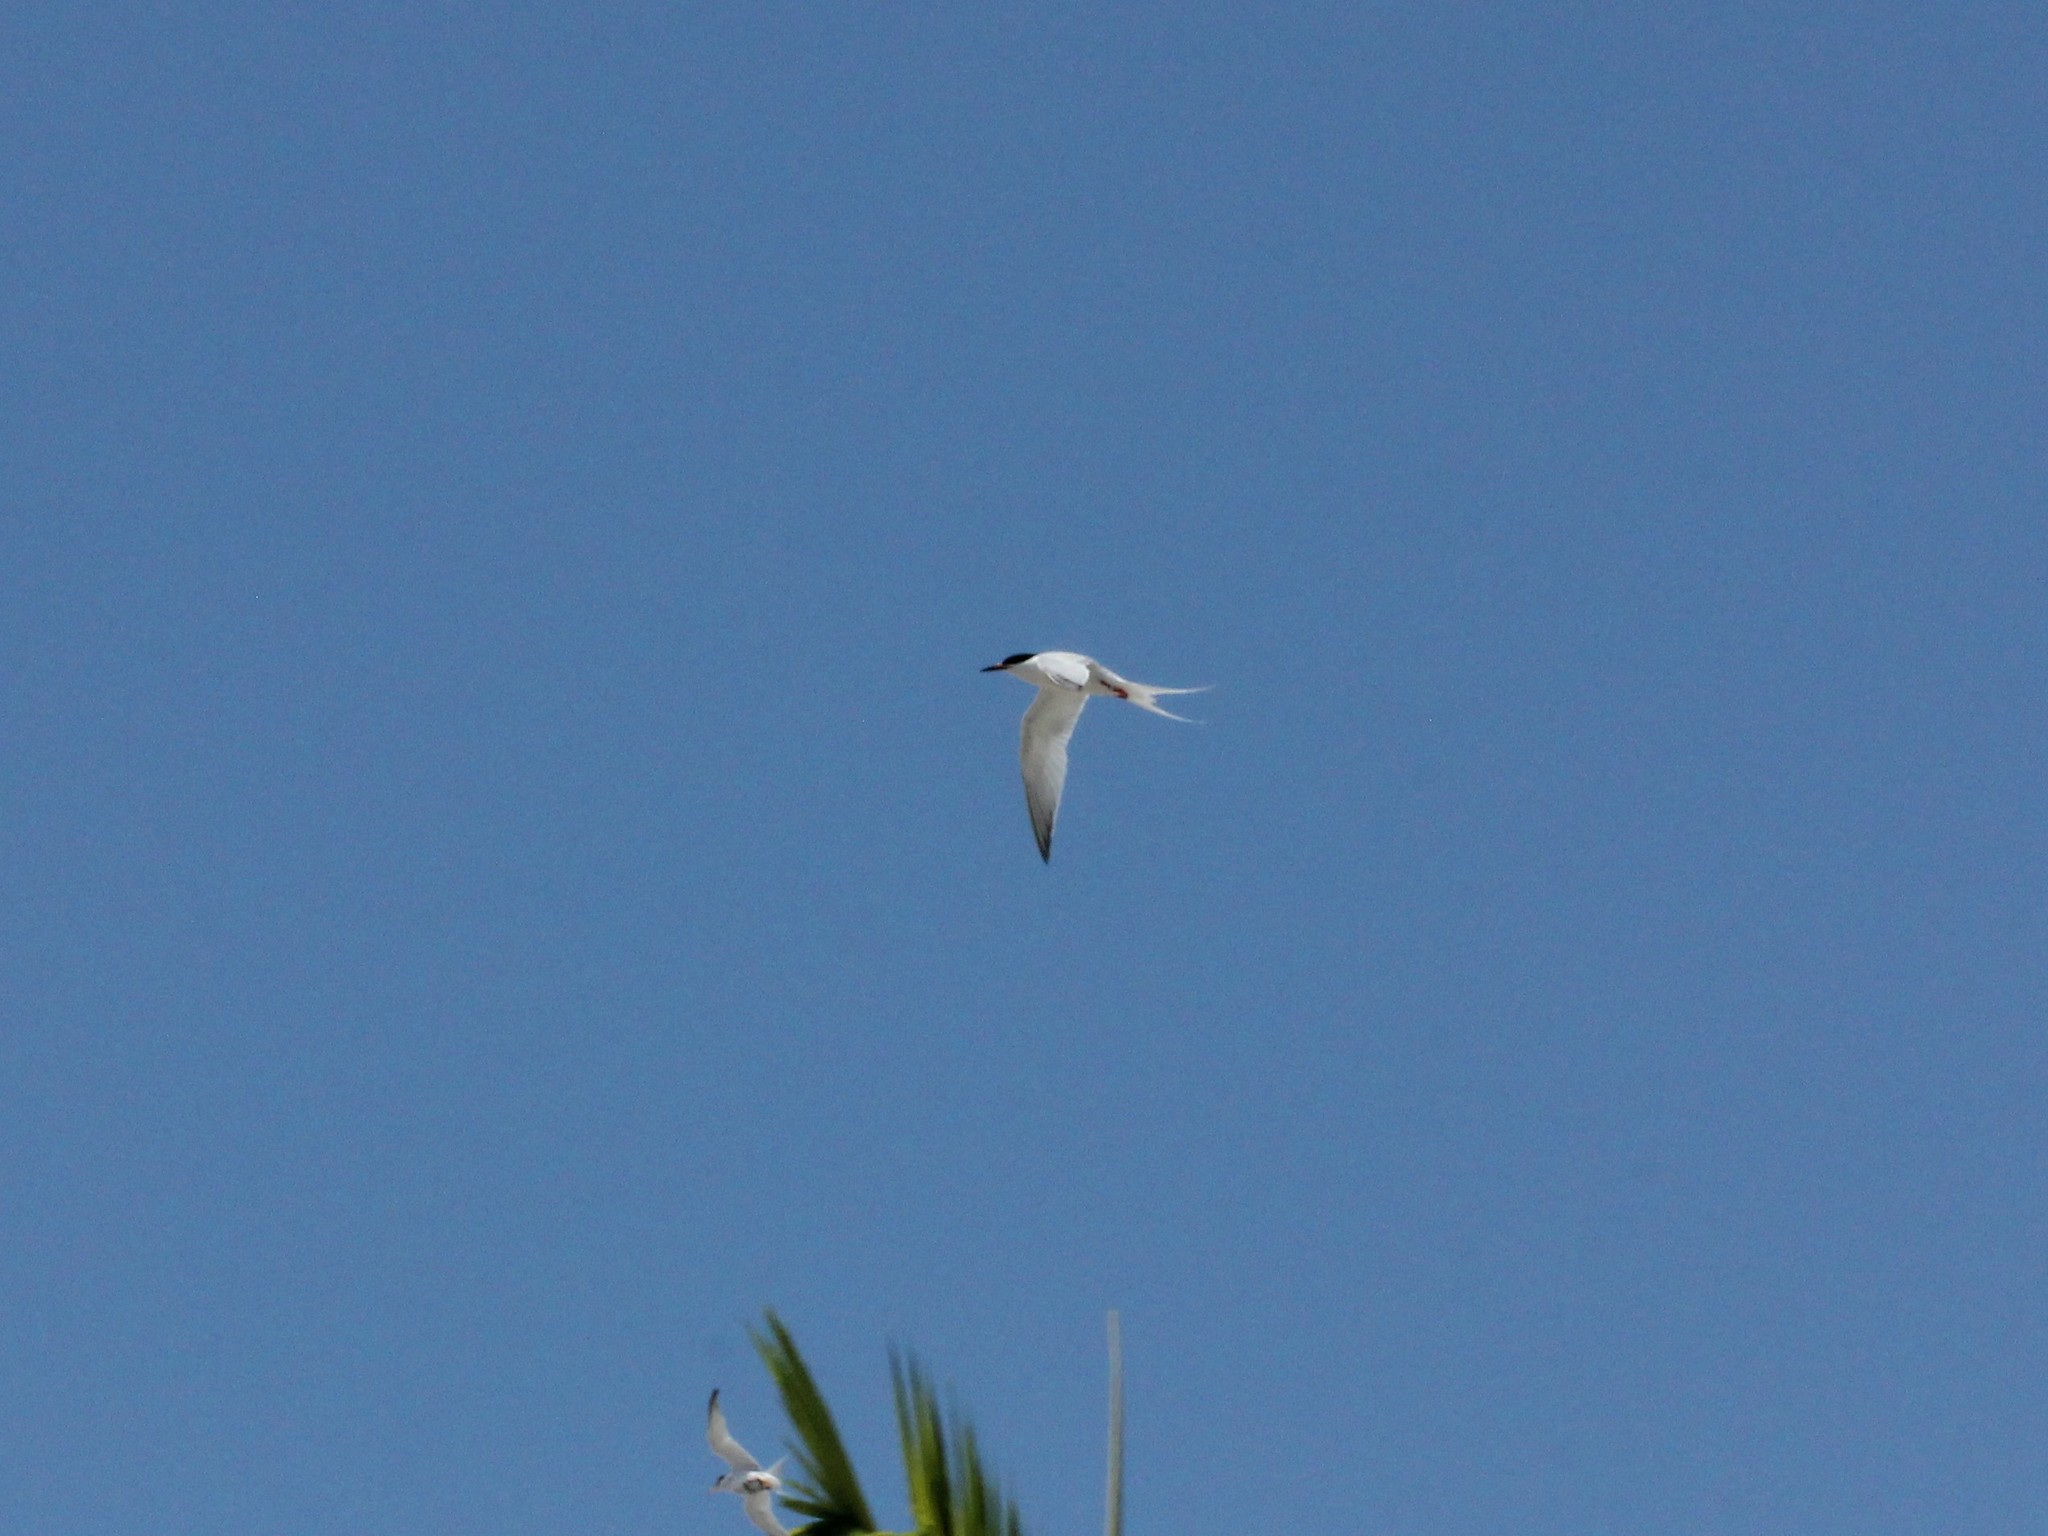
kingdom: Animalia
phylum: Chordata
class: Aves
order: Charadriiformes
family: Laridae
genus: Sterna
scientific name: Sterna dougallii
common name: Roseate tern
